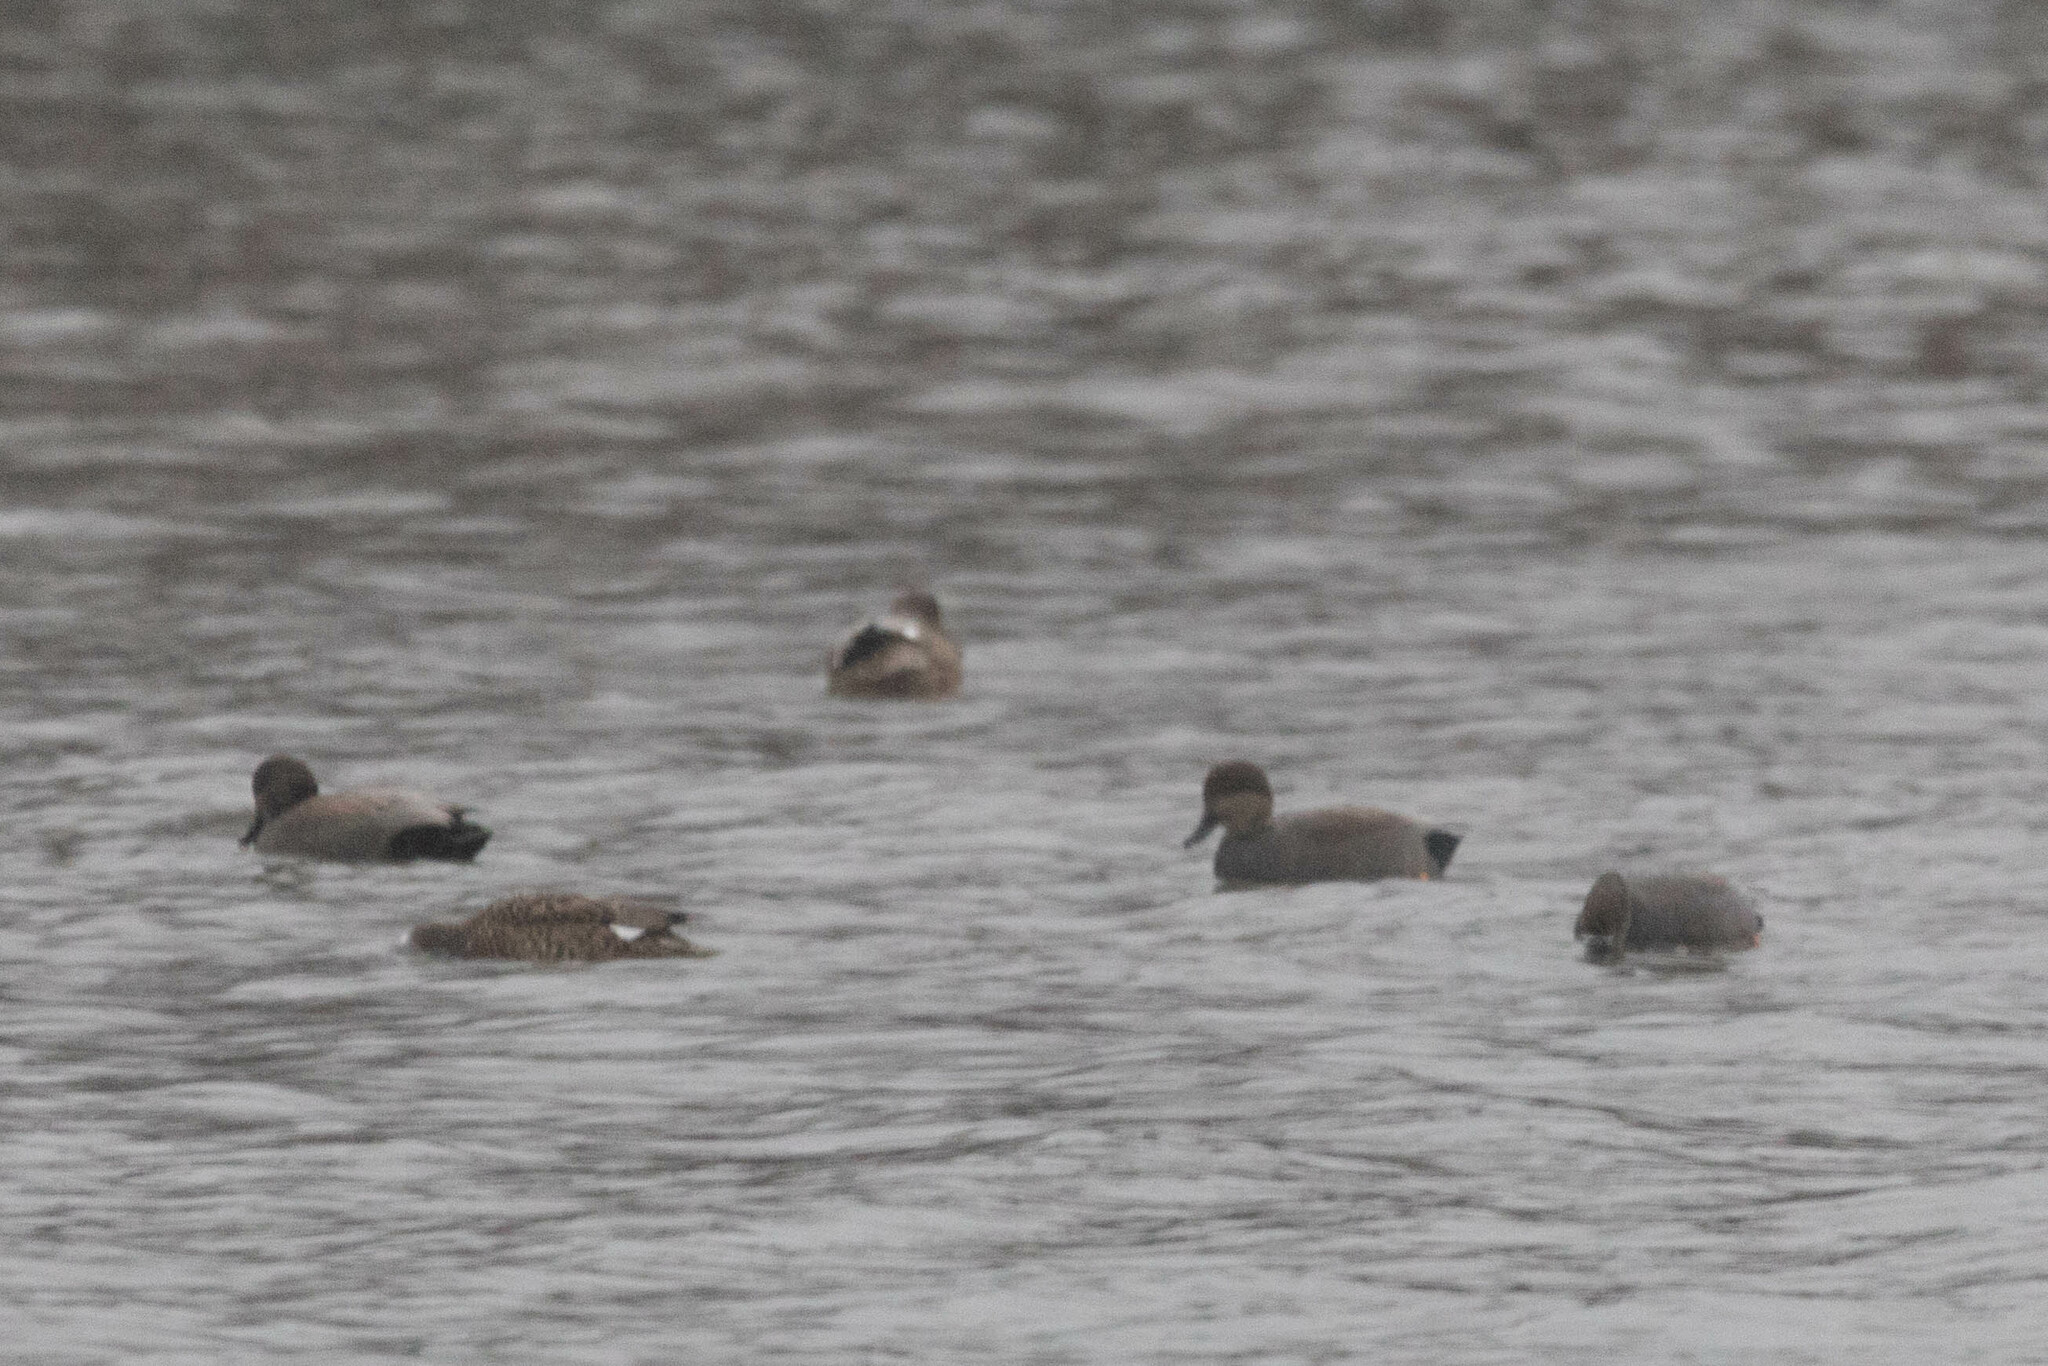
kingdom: Animalia
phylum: Chordata
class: Aves
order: Anseriformes
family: Anatidae
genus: Mareca
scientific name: Mareca strepera
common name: Gadwall
